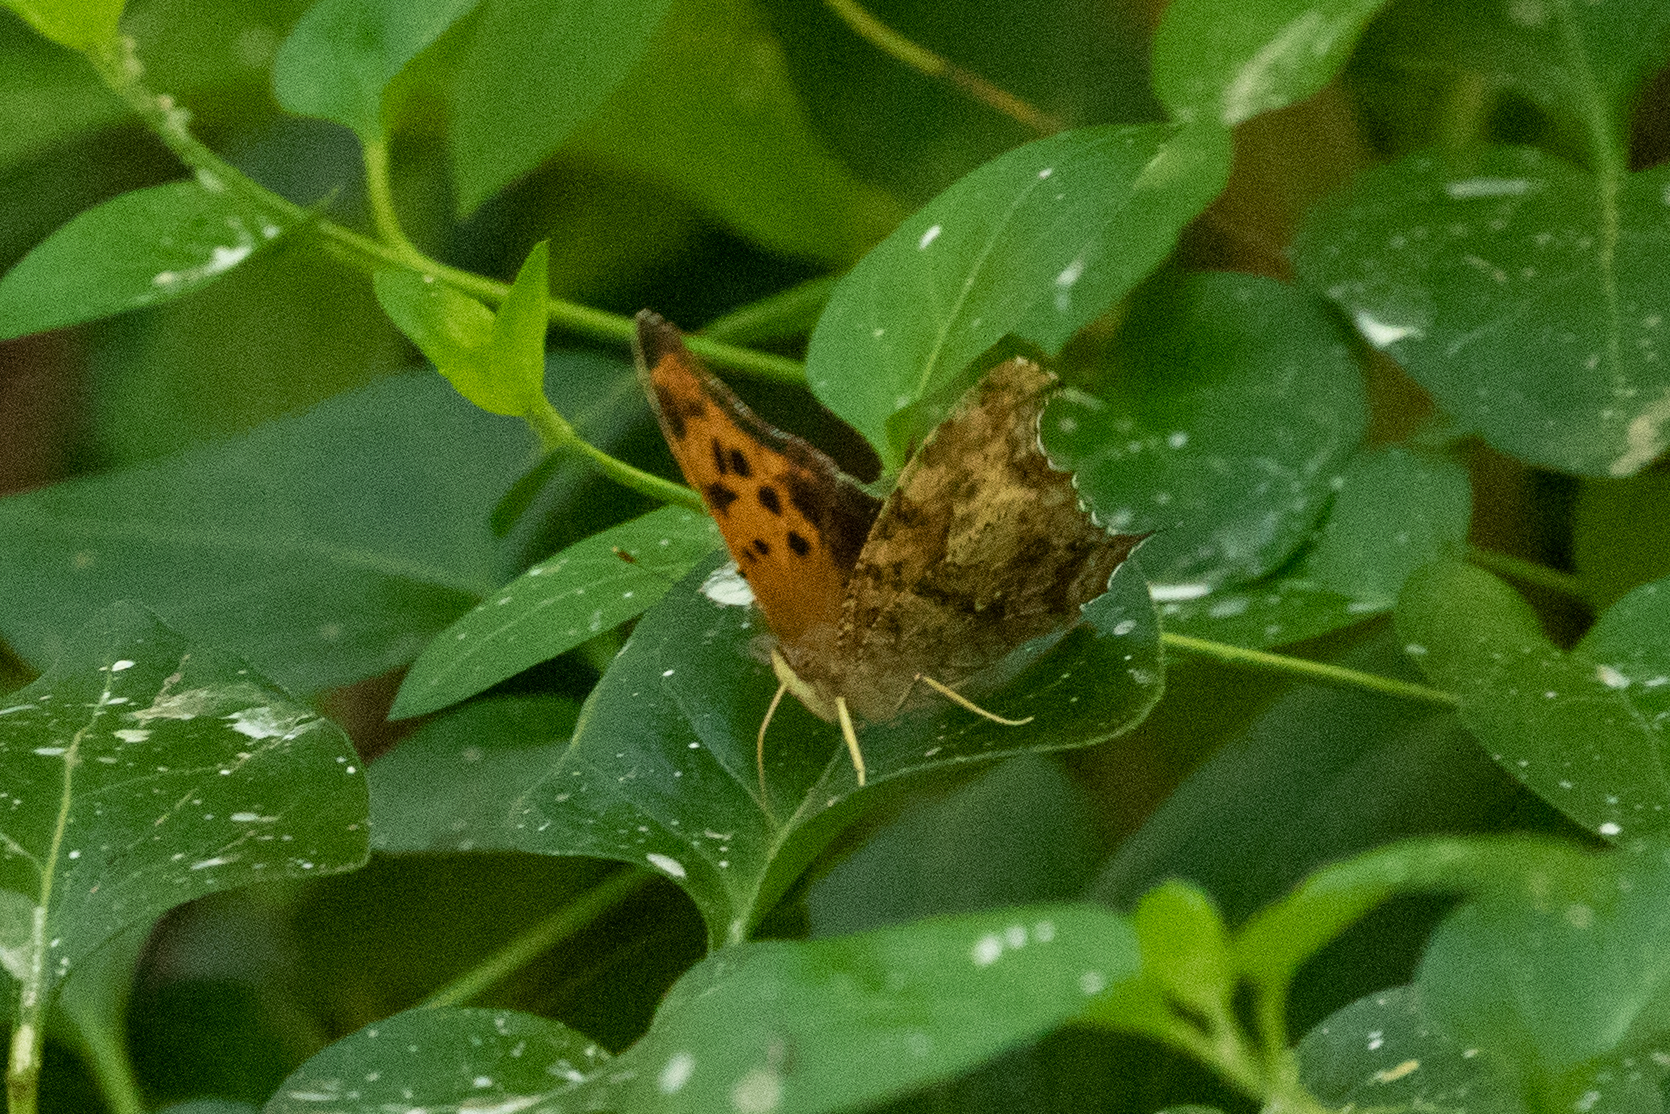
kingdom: Animalia
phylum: Arthropoda
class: Insecta
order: Lepidoptera
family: Nymphalidae
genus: Polygonia
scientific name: Polygonia interrogationis
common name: Question mark
